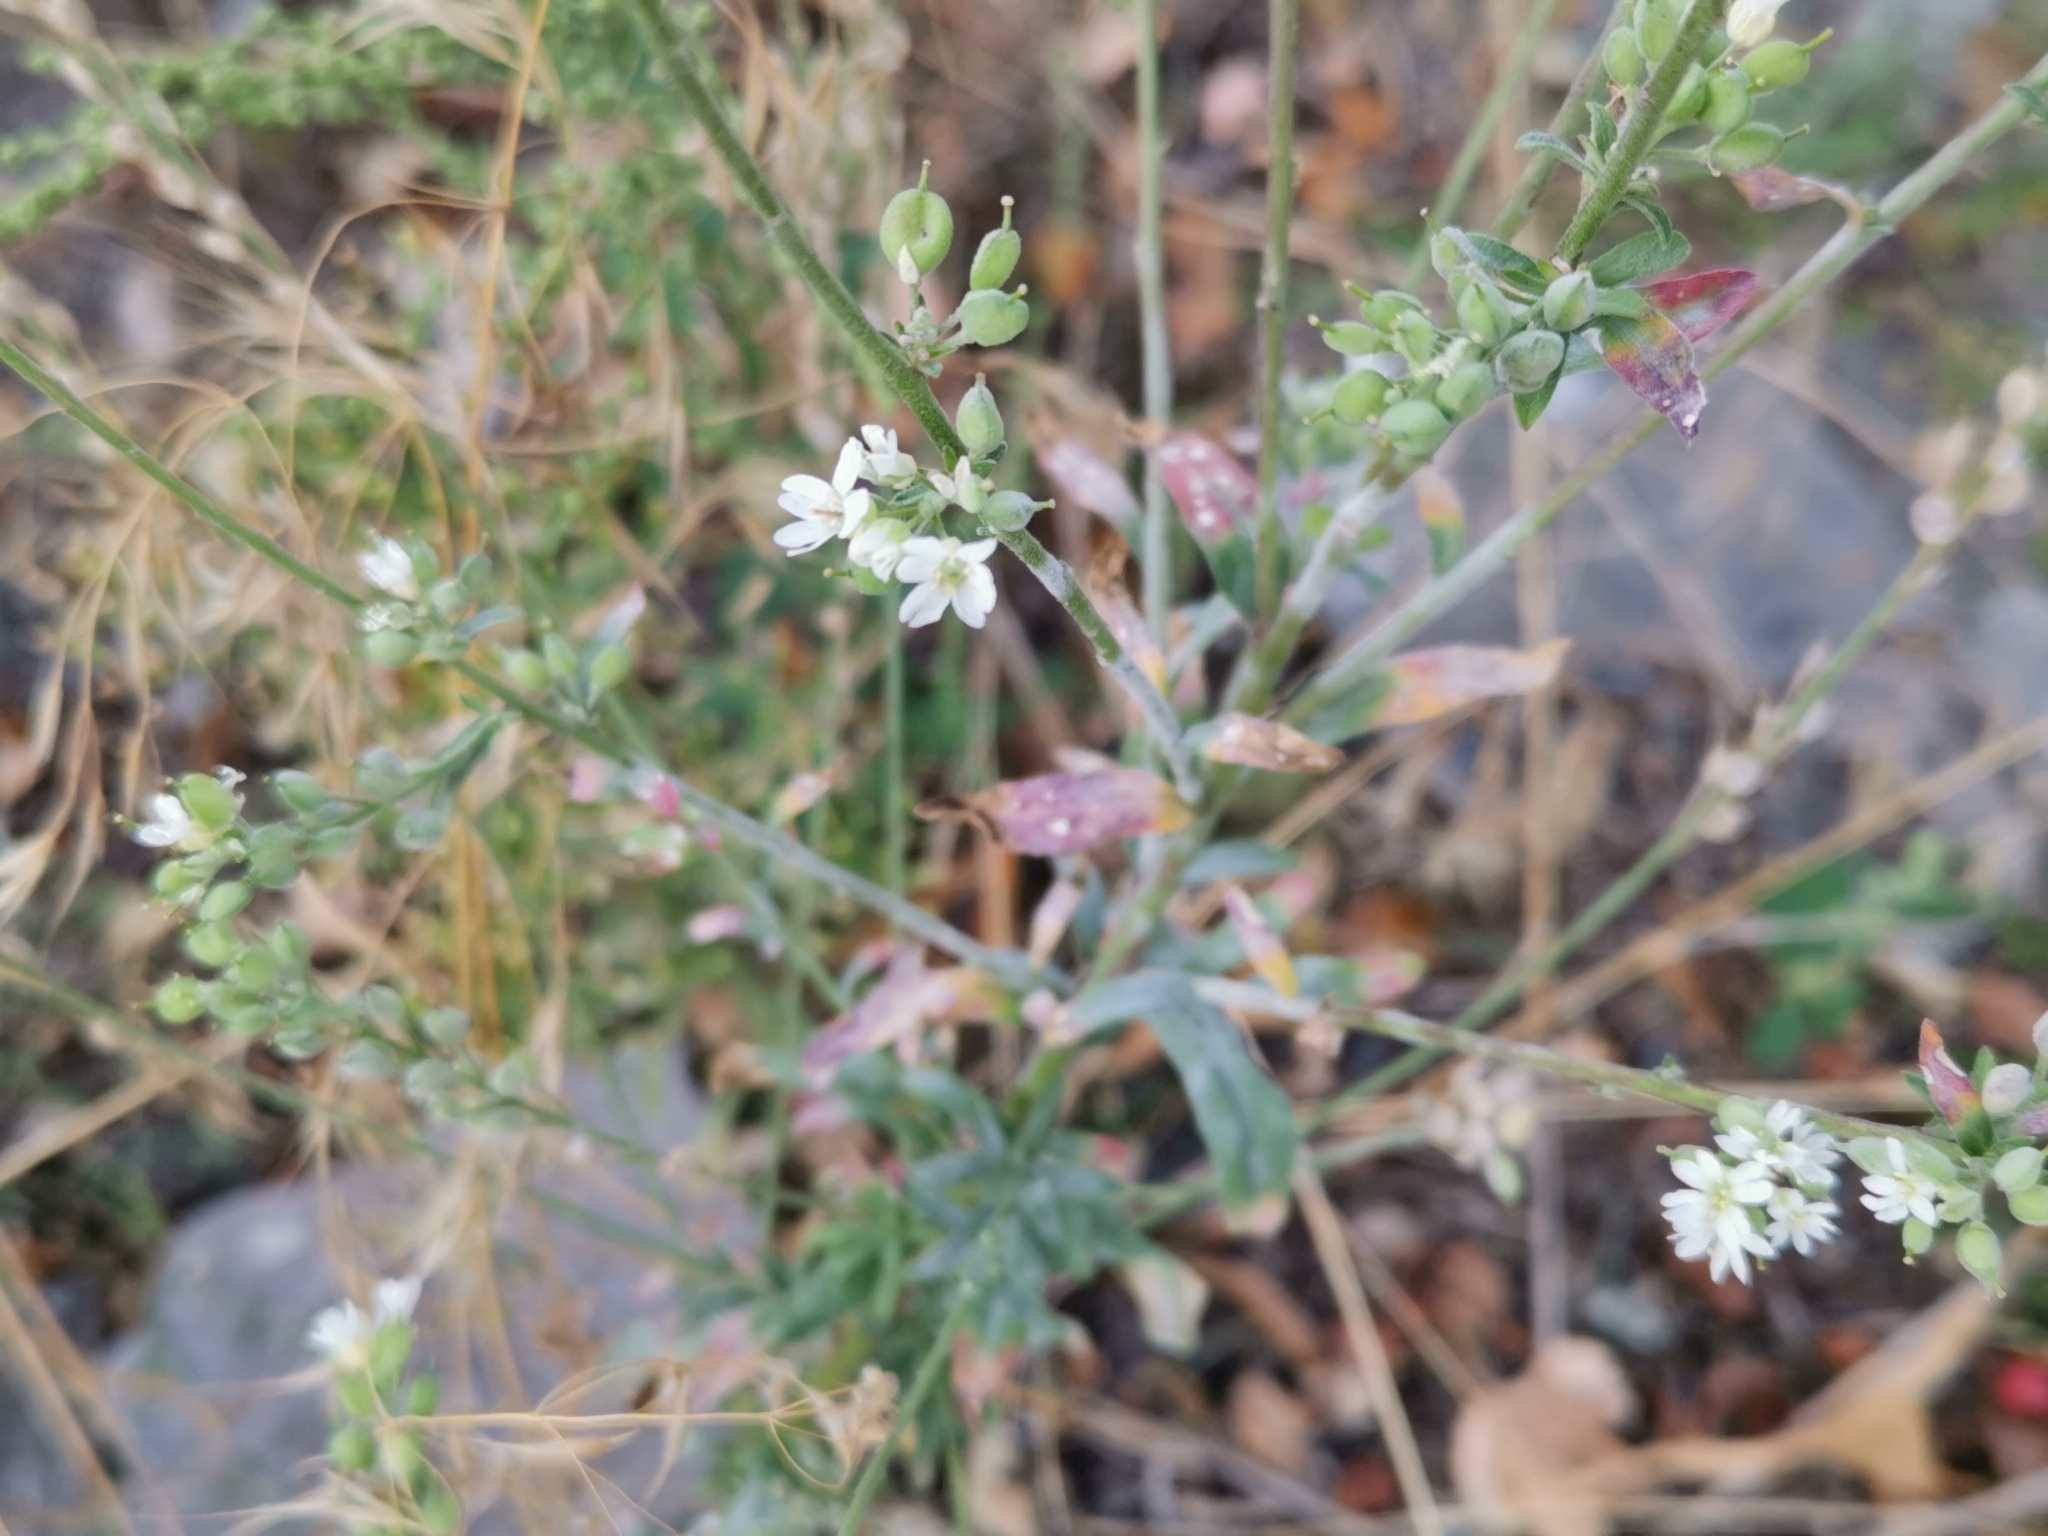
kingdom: Plantae
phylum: Tracheophyta
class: Magnoliopsida
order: Brassicales
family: Brassicaceae
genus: Berteroa
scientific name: Berteroa incana
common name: Hoary alison
